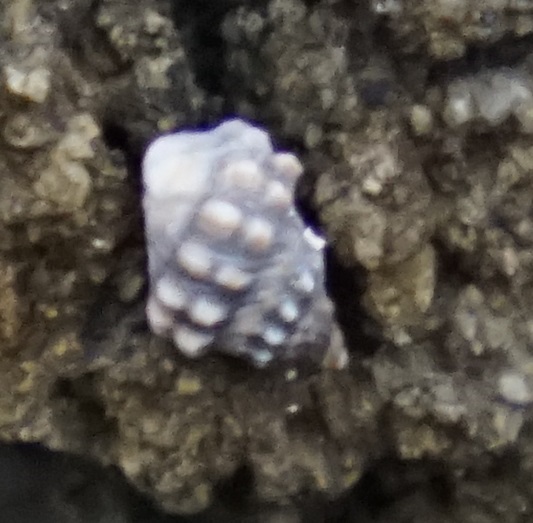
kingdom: Animalia
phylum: Mollusca
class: Gastropoda
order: Littorinimorpha
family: Littorinidae
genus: Nodilittorina
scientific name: Nodilittorina pyramidalis
